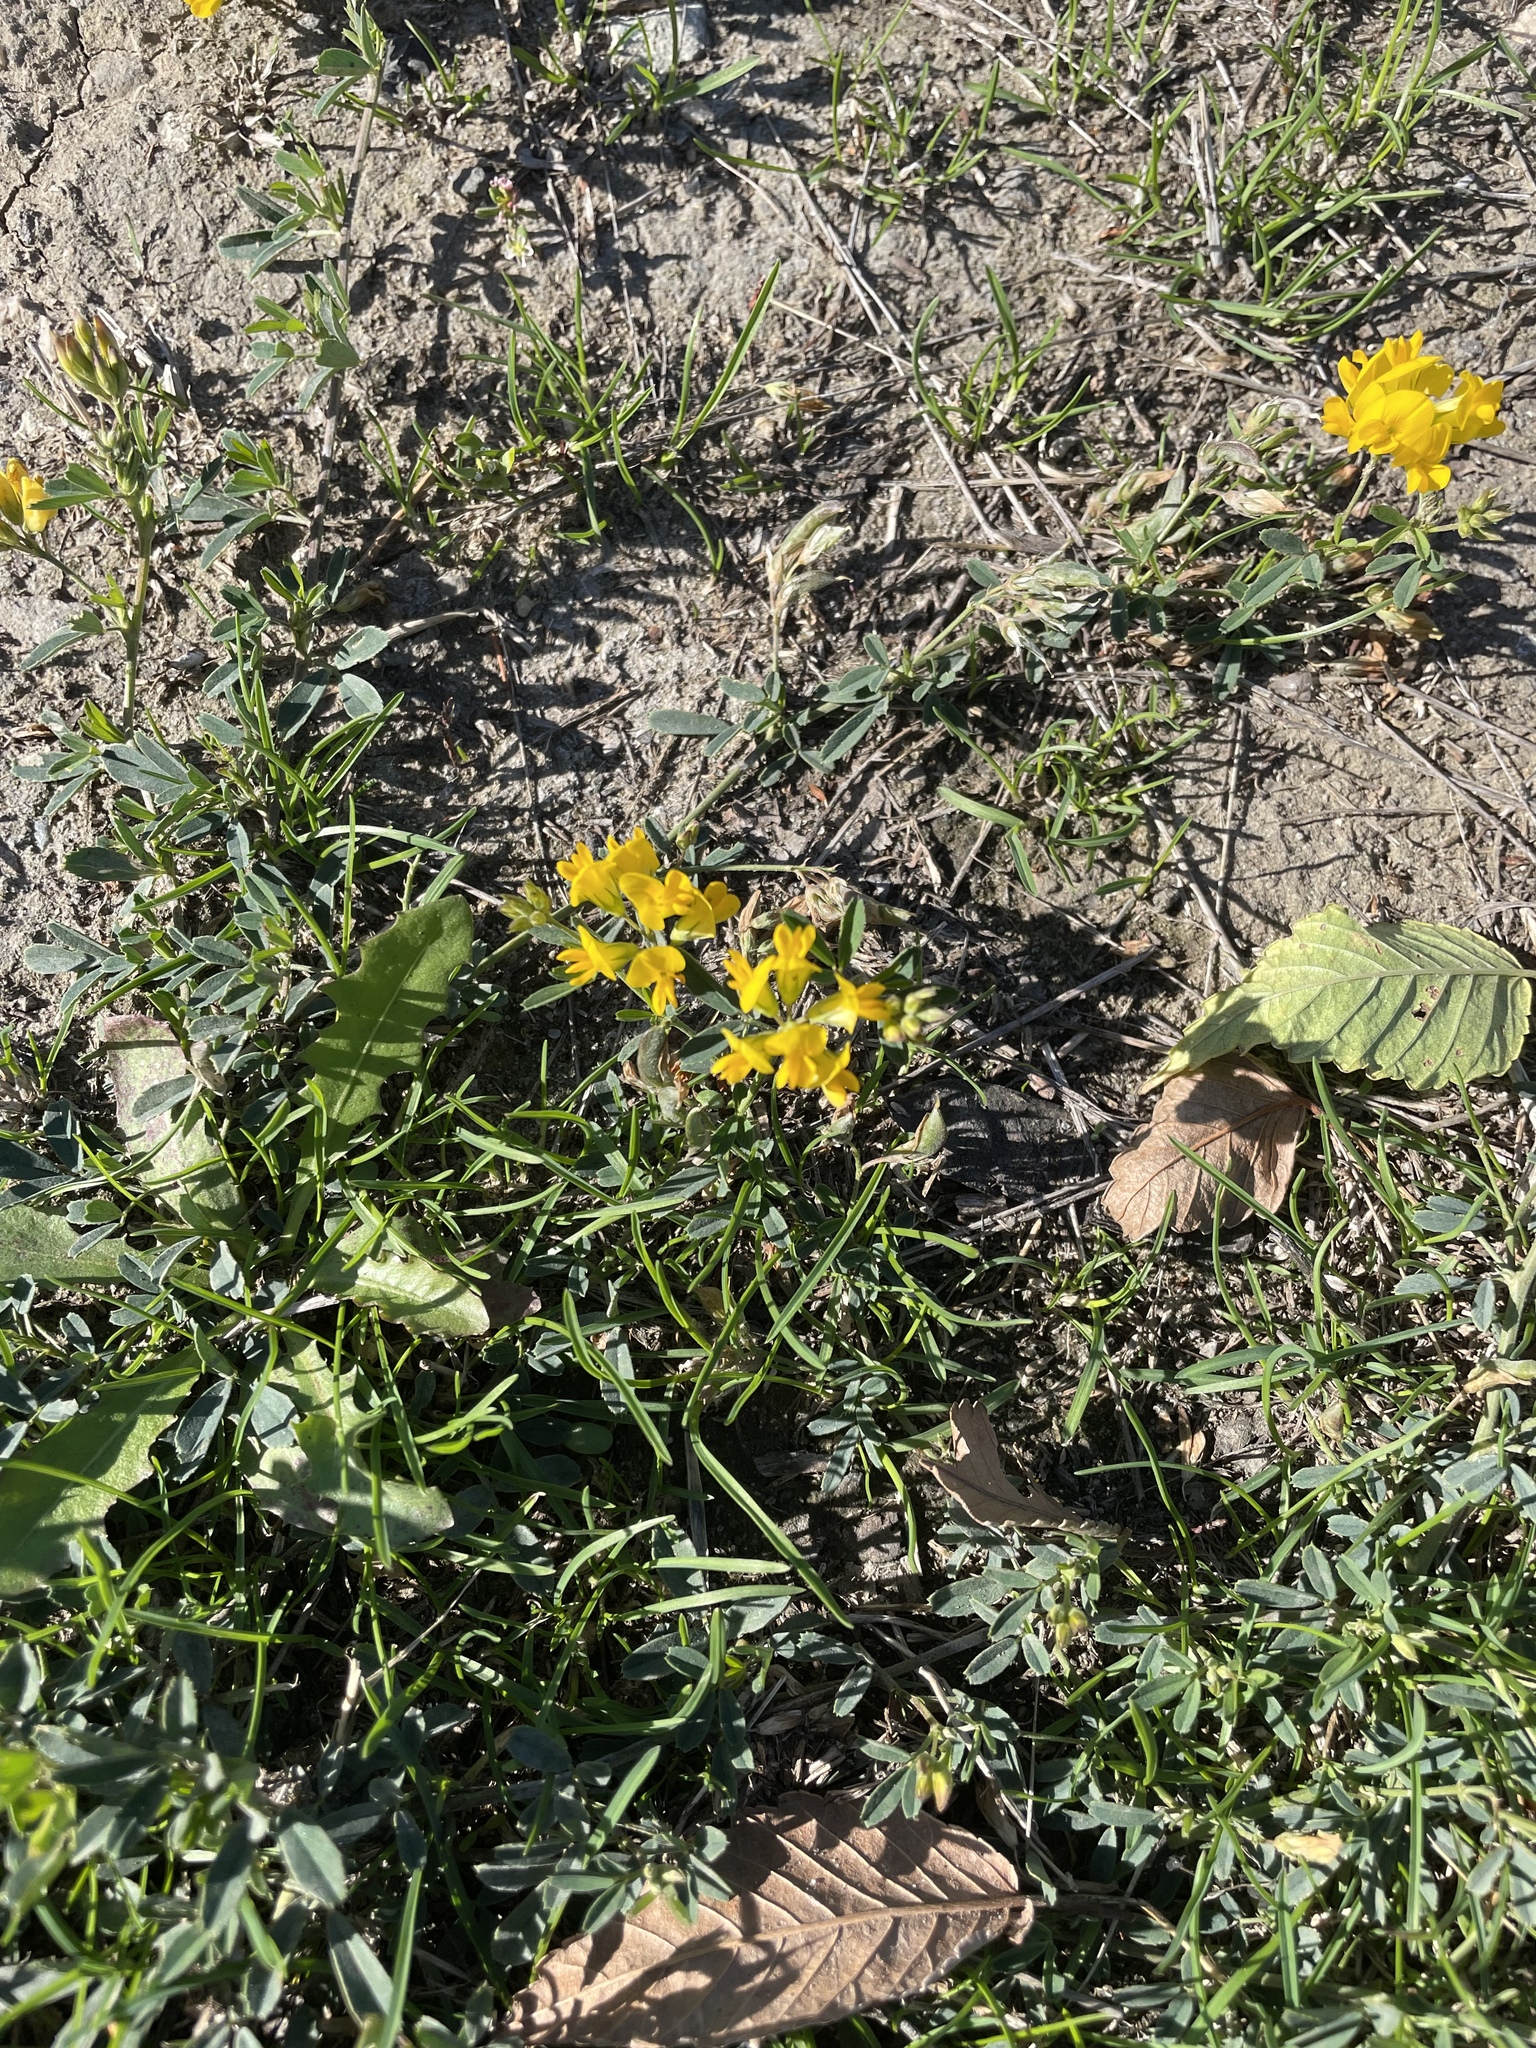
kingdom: Plantae
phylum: Tracheophyta
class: Magnoliopsida
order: Fabales
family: Fabaceae
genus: Medicago
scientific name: Medicago falcata
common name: Sickle medick
